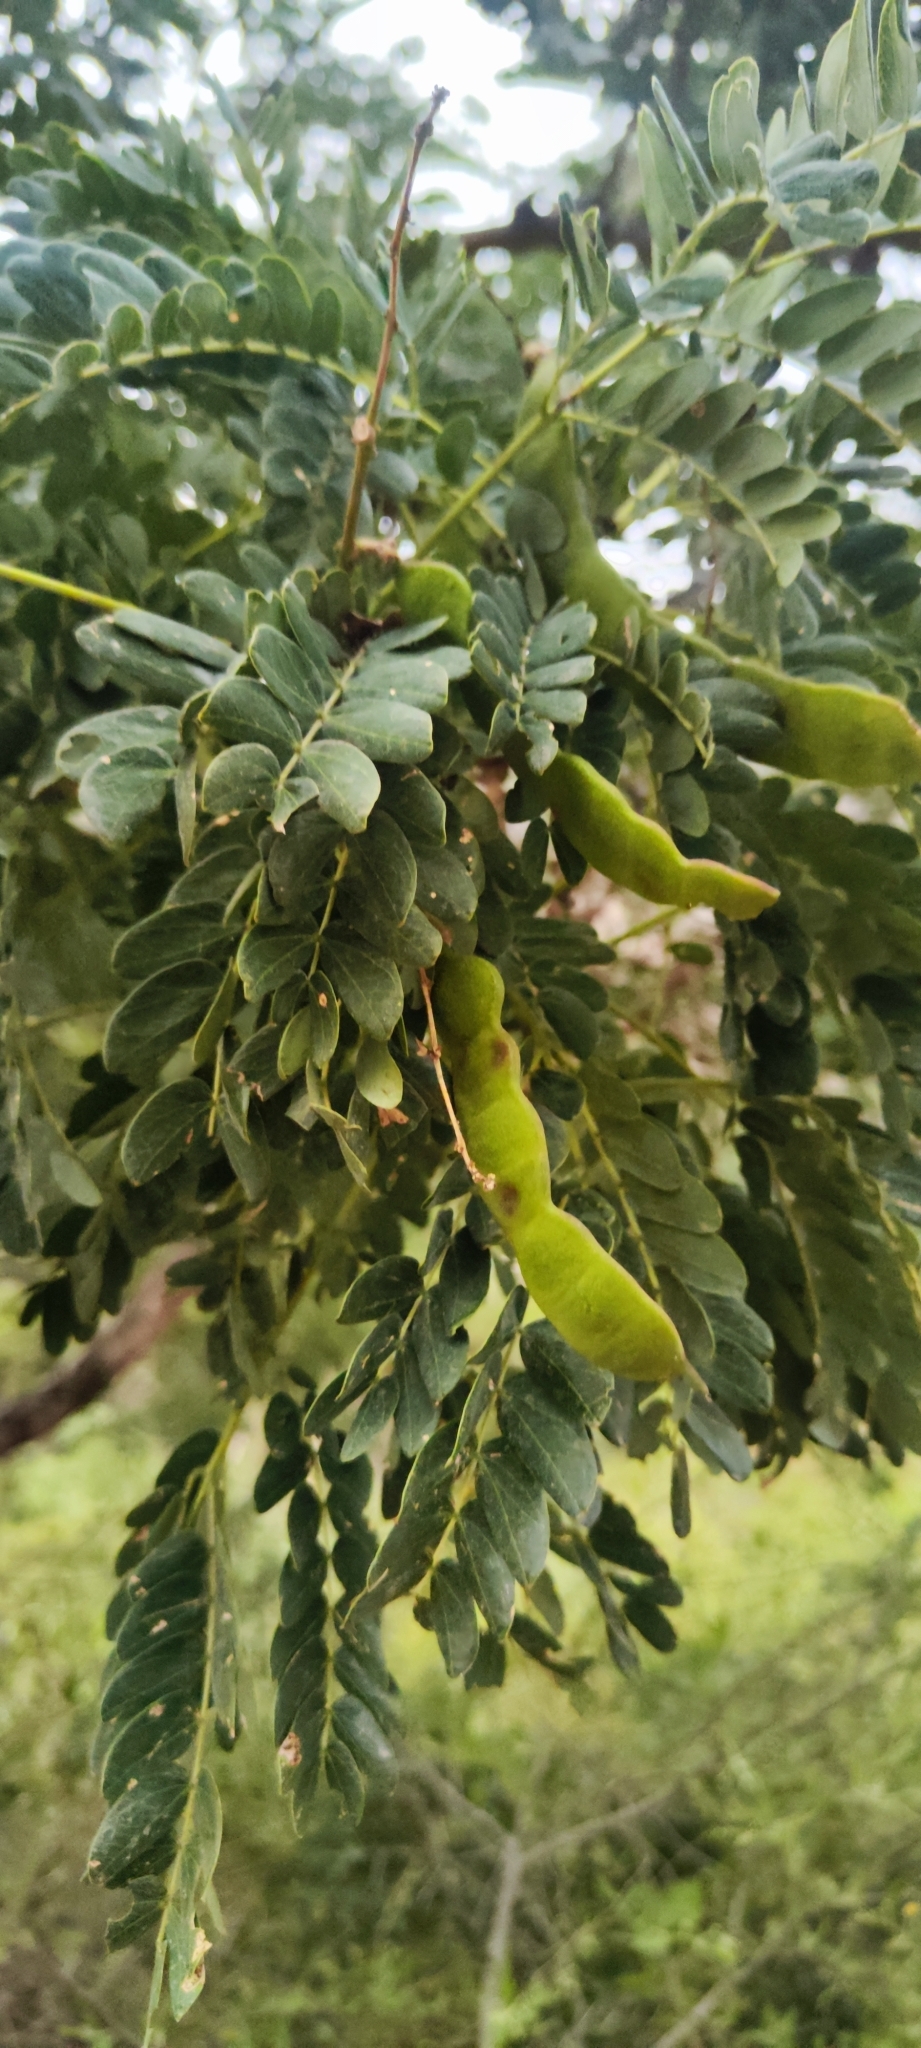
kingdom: Plantae
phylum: Tracheophyta
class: Magnoliopsida
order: Fabales
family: Fabaceae
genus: Albizia
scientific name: Albizia multiflora
